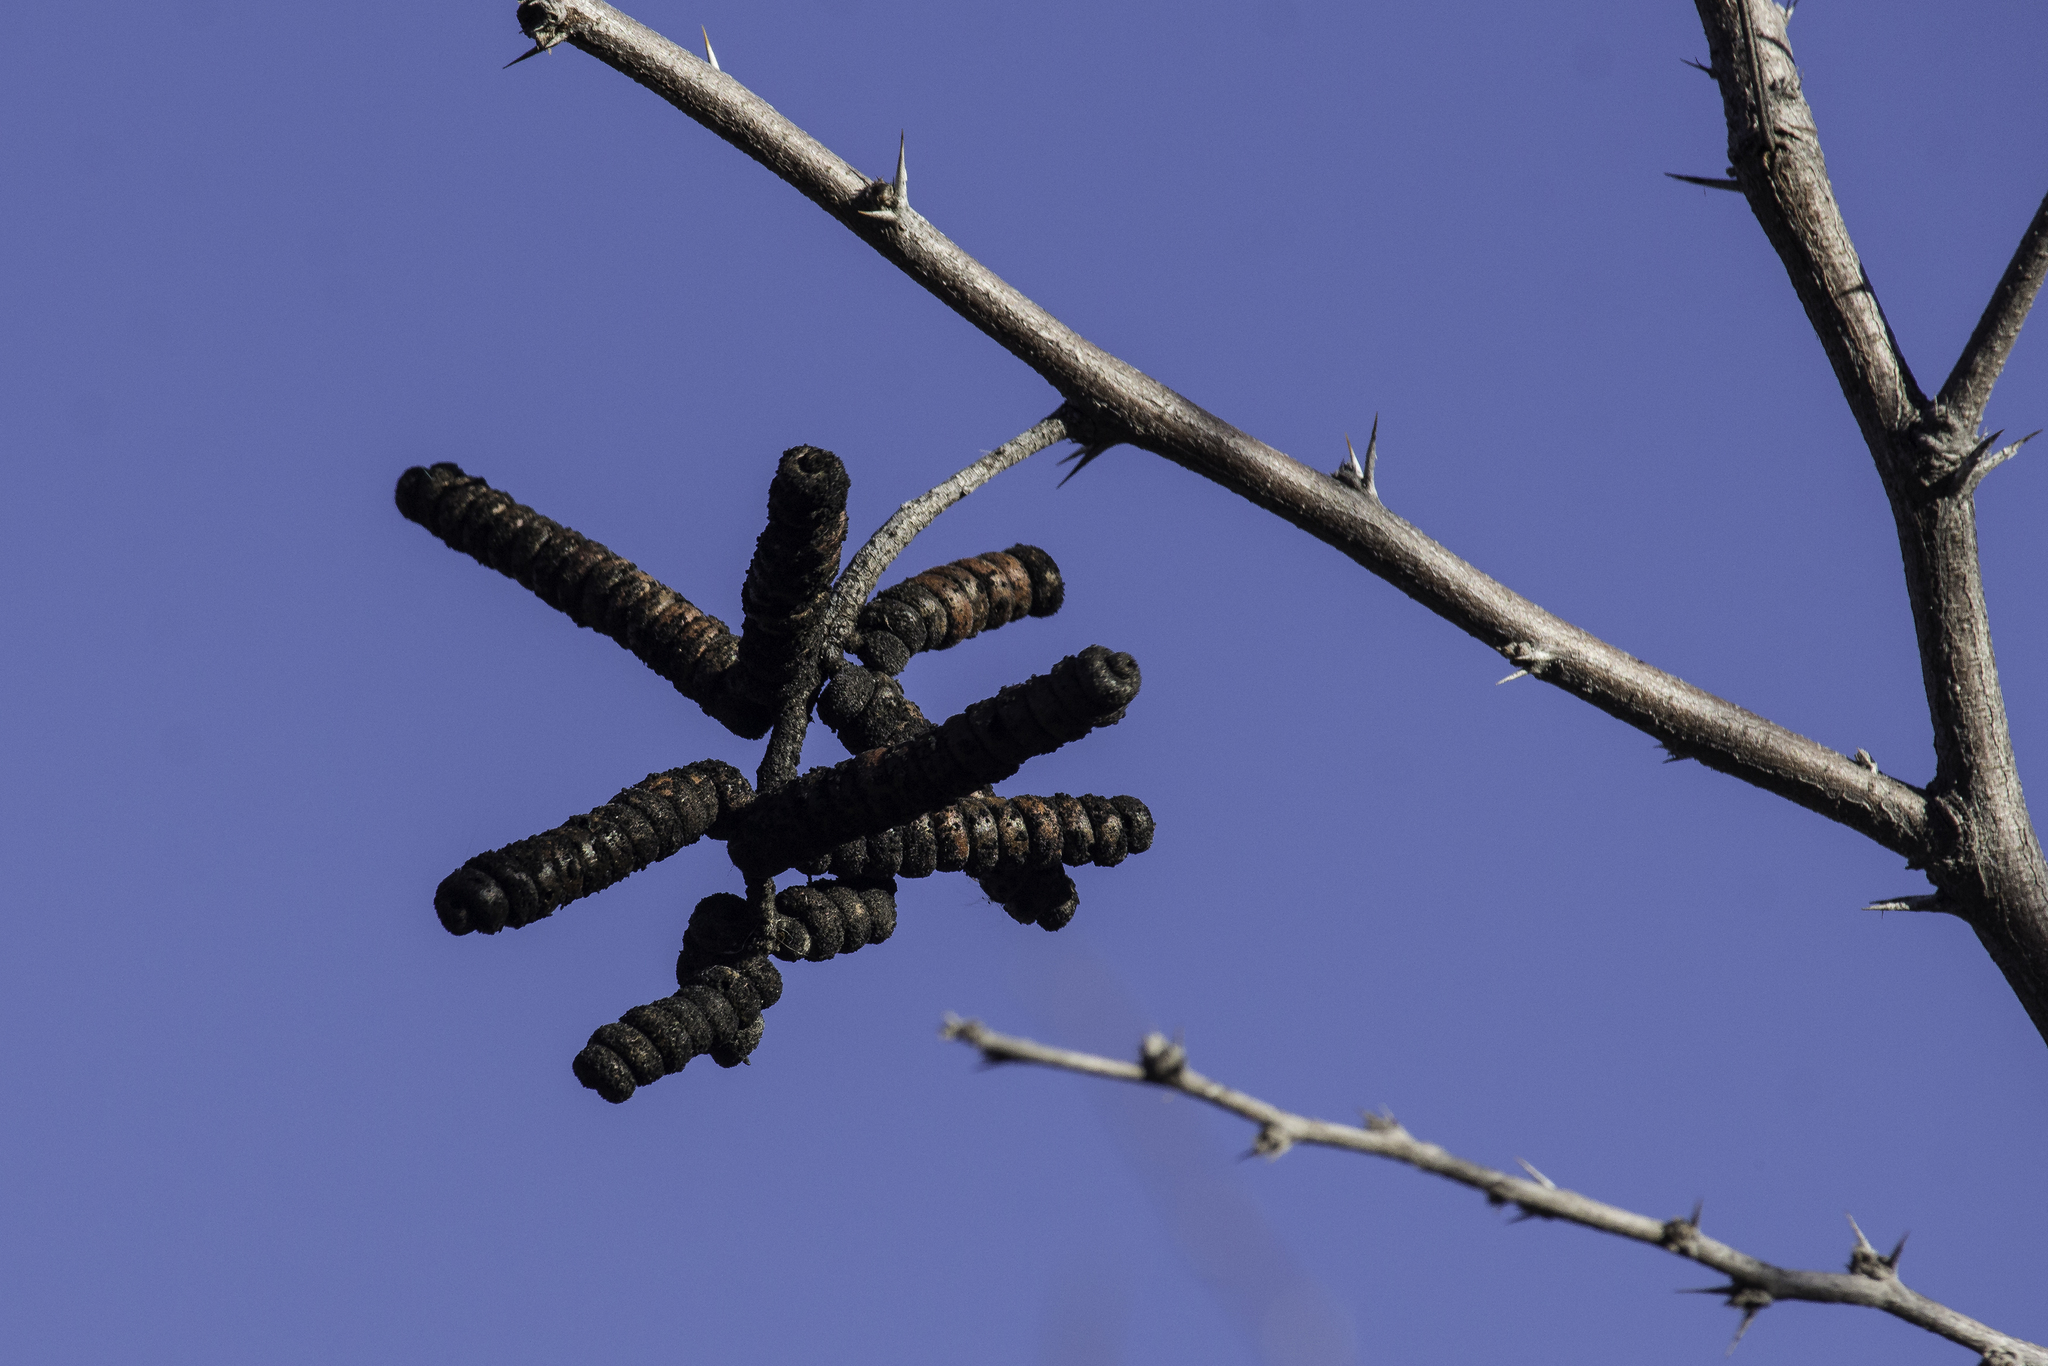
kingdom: Plantae
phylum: Tracheophyta
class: Magnoliopsida
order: Fabales
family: Fabaceae
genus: Prosopis
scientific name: Prosopis pubescens
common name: Screw-bean
